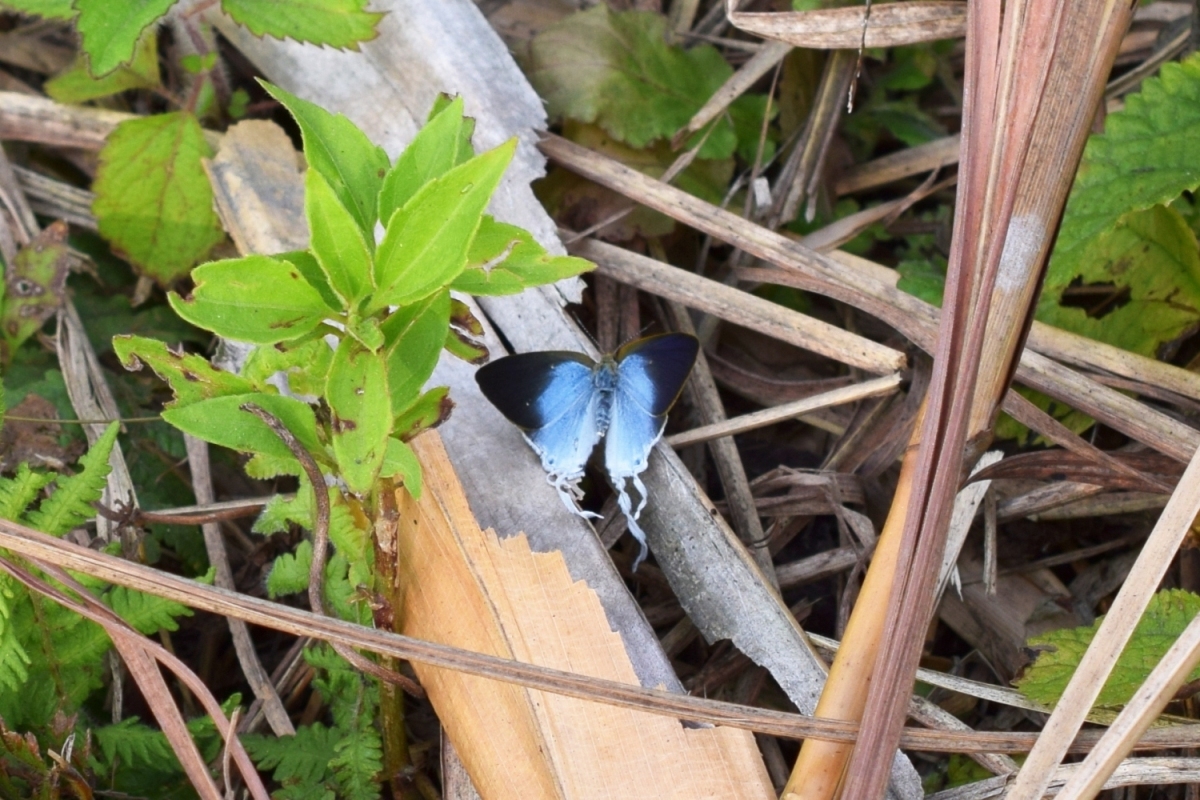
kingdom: Animalia
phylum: Arthropoda
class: Insecta
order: Lepidoptera
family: Lycaenidae
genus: Zeltus
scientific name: Zeltus amasa
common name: Fluffy tit
